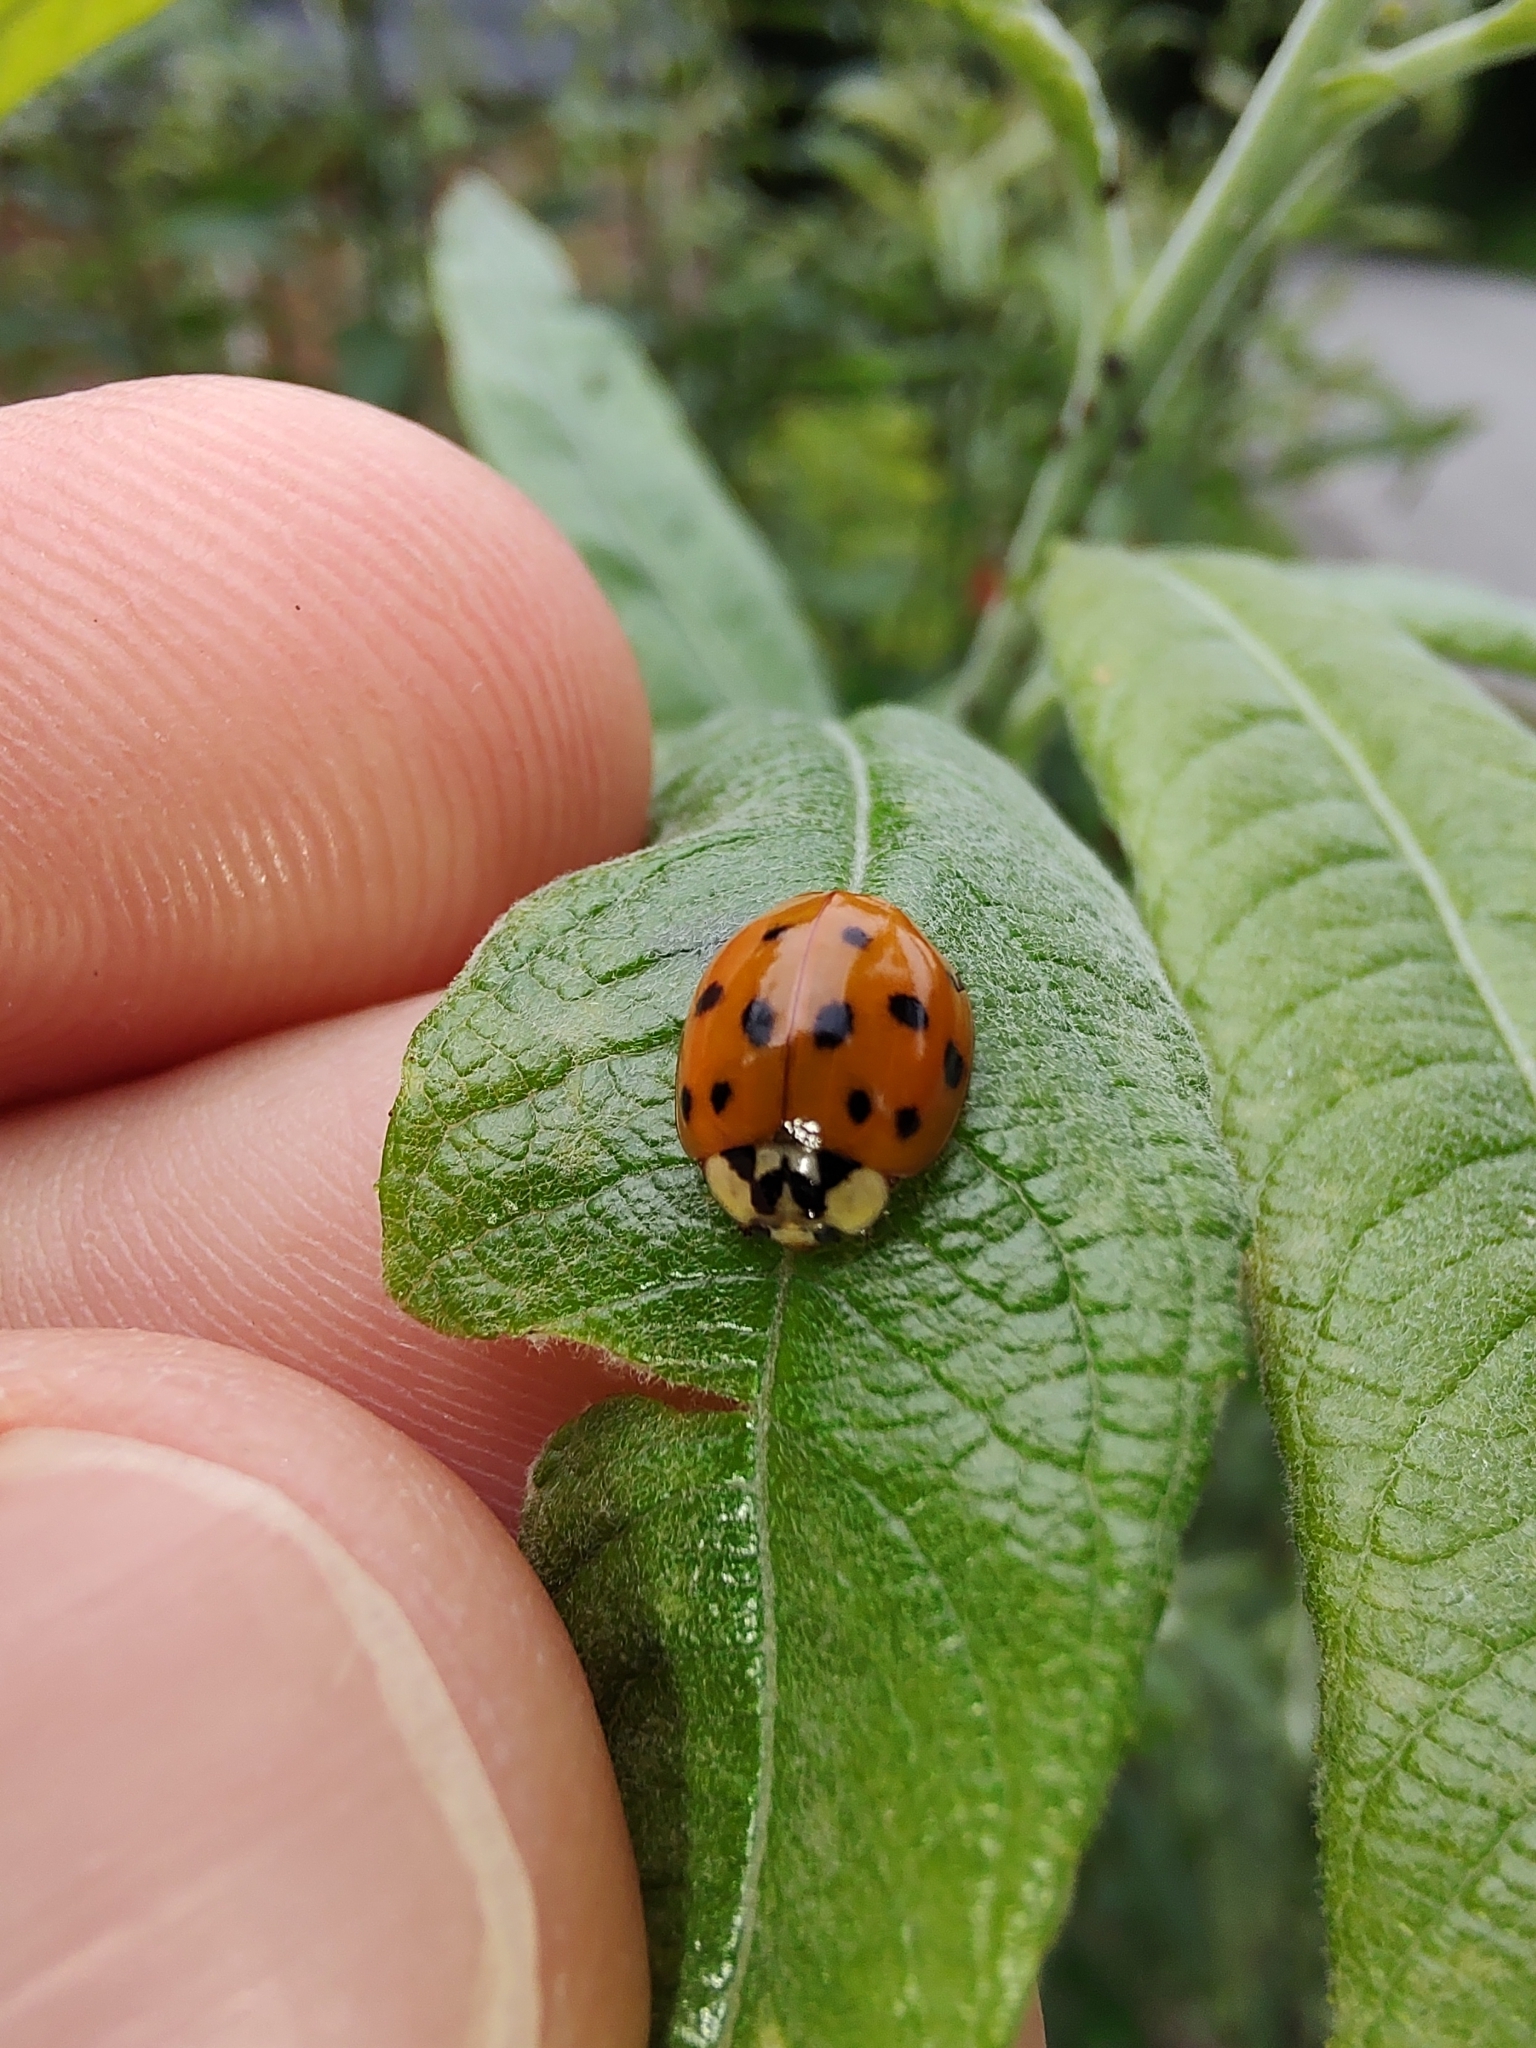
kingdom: Animalia
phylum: Arthropoda
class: Insecta
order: Coleoptera
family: Coccinellidae
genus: Harmonia
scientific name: Harmonia axyridis
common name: Harlequin ladybird
